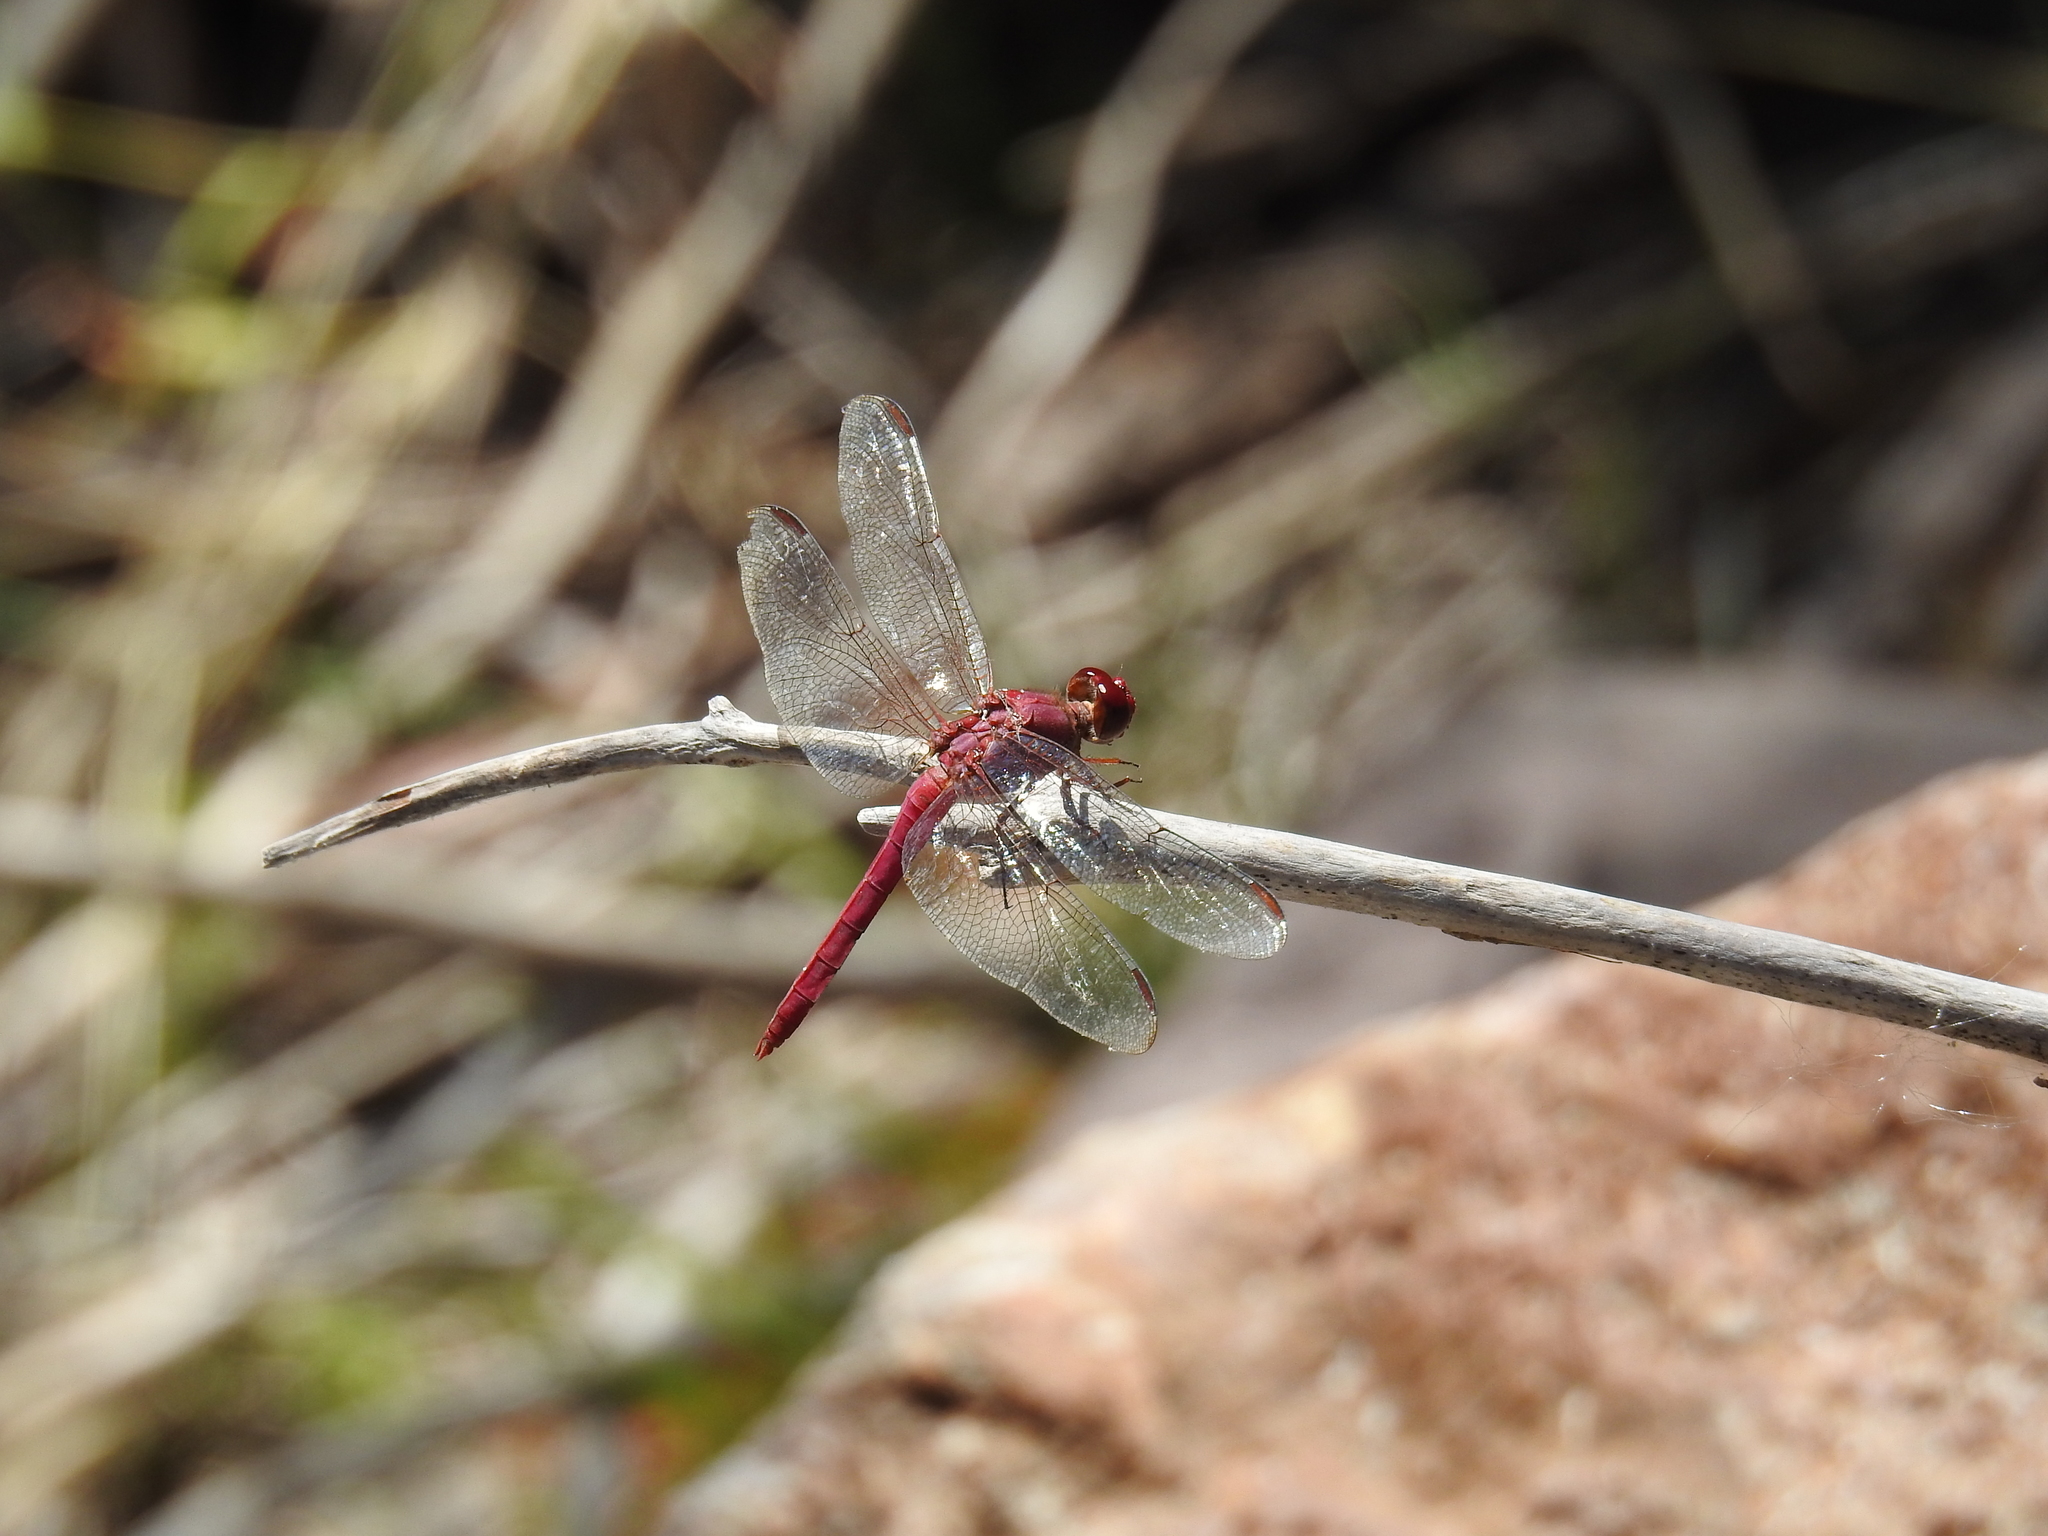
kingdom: Animalia
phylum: Arthropoda
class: Insecta
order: Odonata
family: Libellulidae
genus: Orthemis
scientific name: Orthemis discolor
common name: Carmine skimmer
